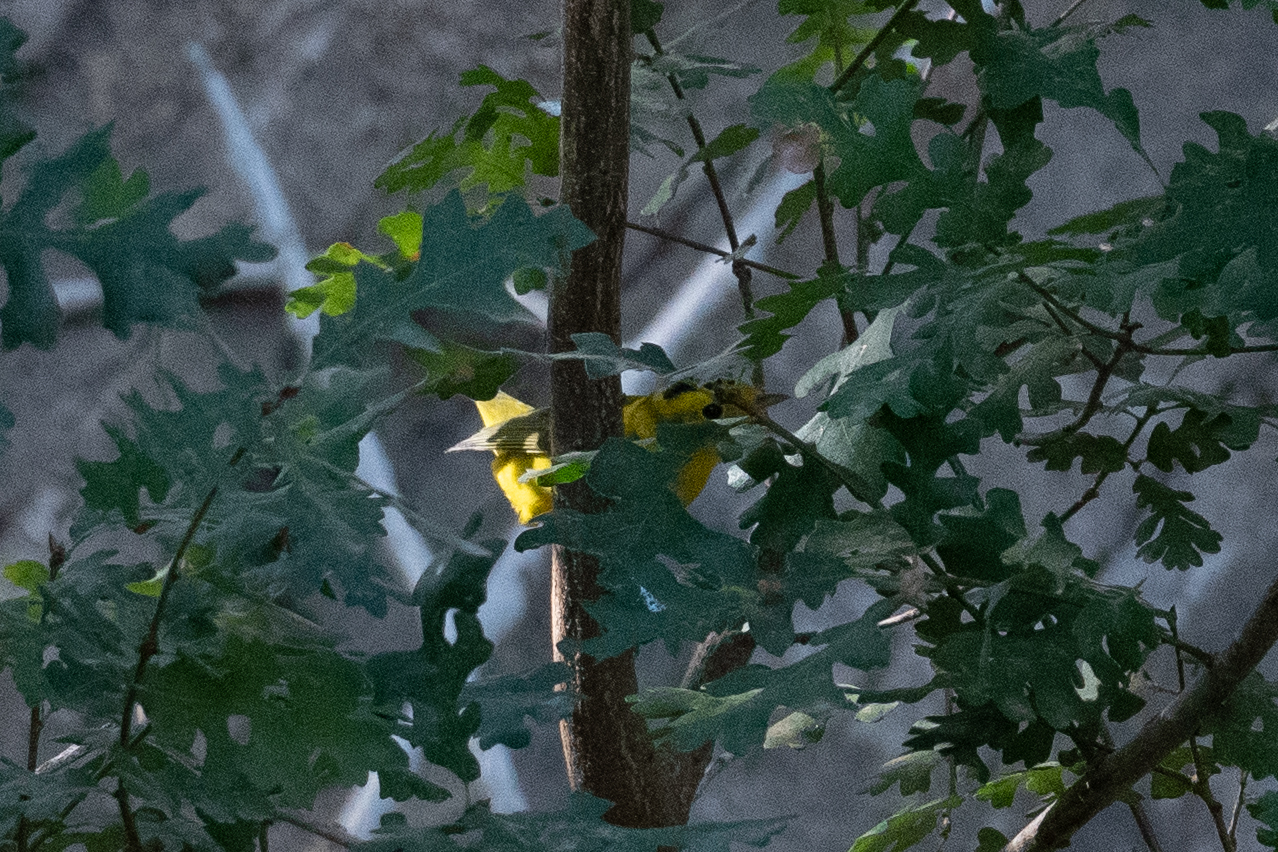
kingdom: Animalia
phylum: Chordata
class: Aves
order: Passeriformes
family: Parulidae
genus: Cardellina
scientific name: Cardellina pusilla
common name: Wilson's warbler
